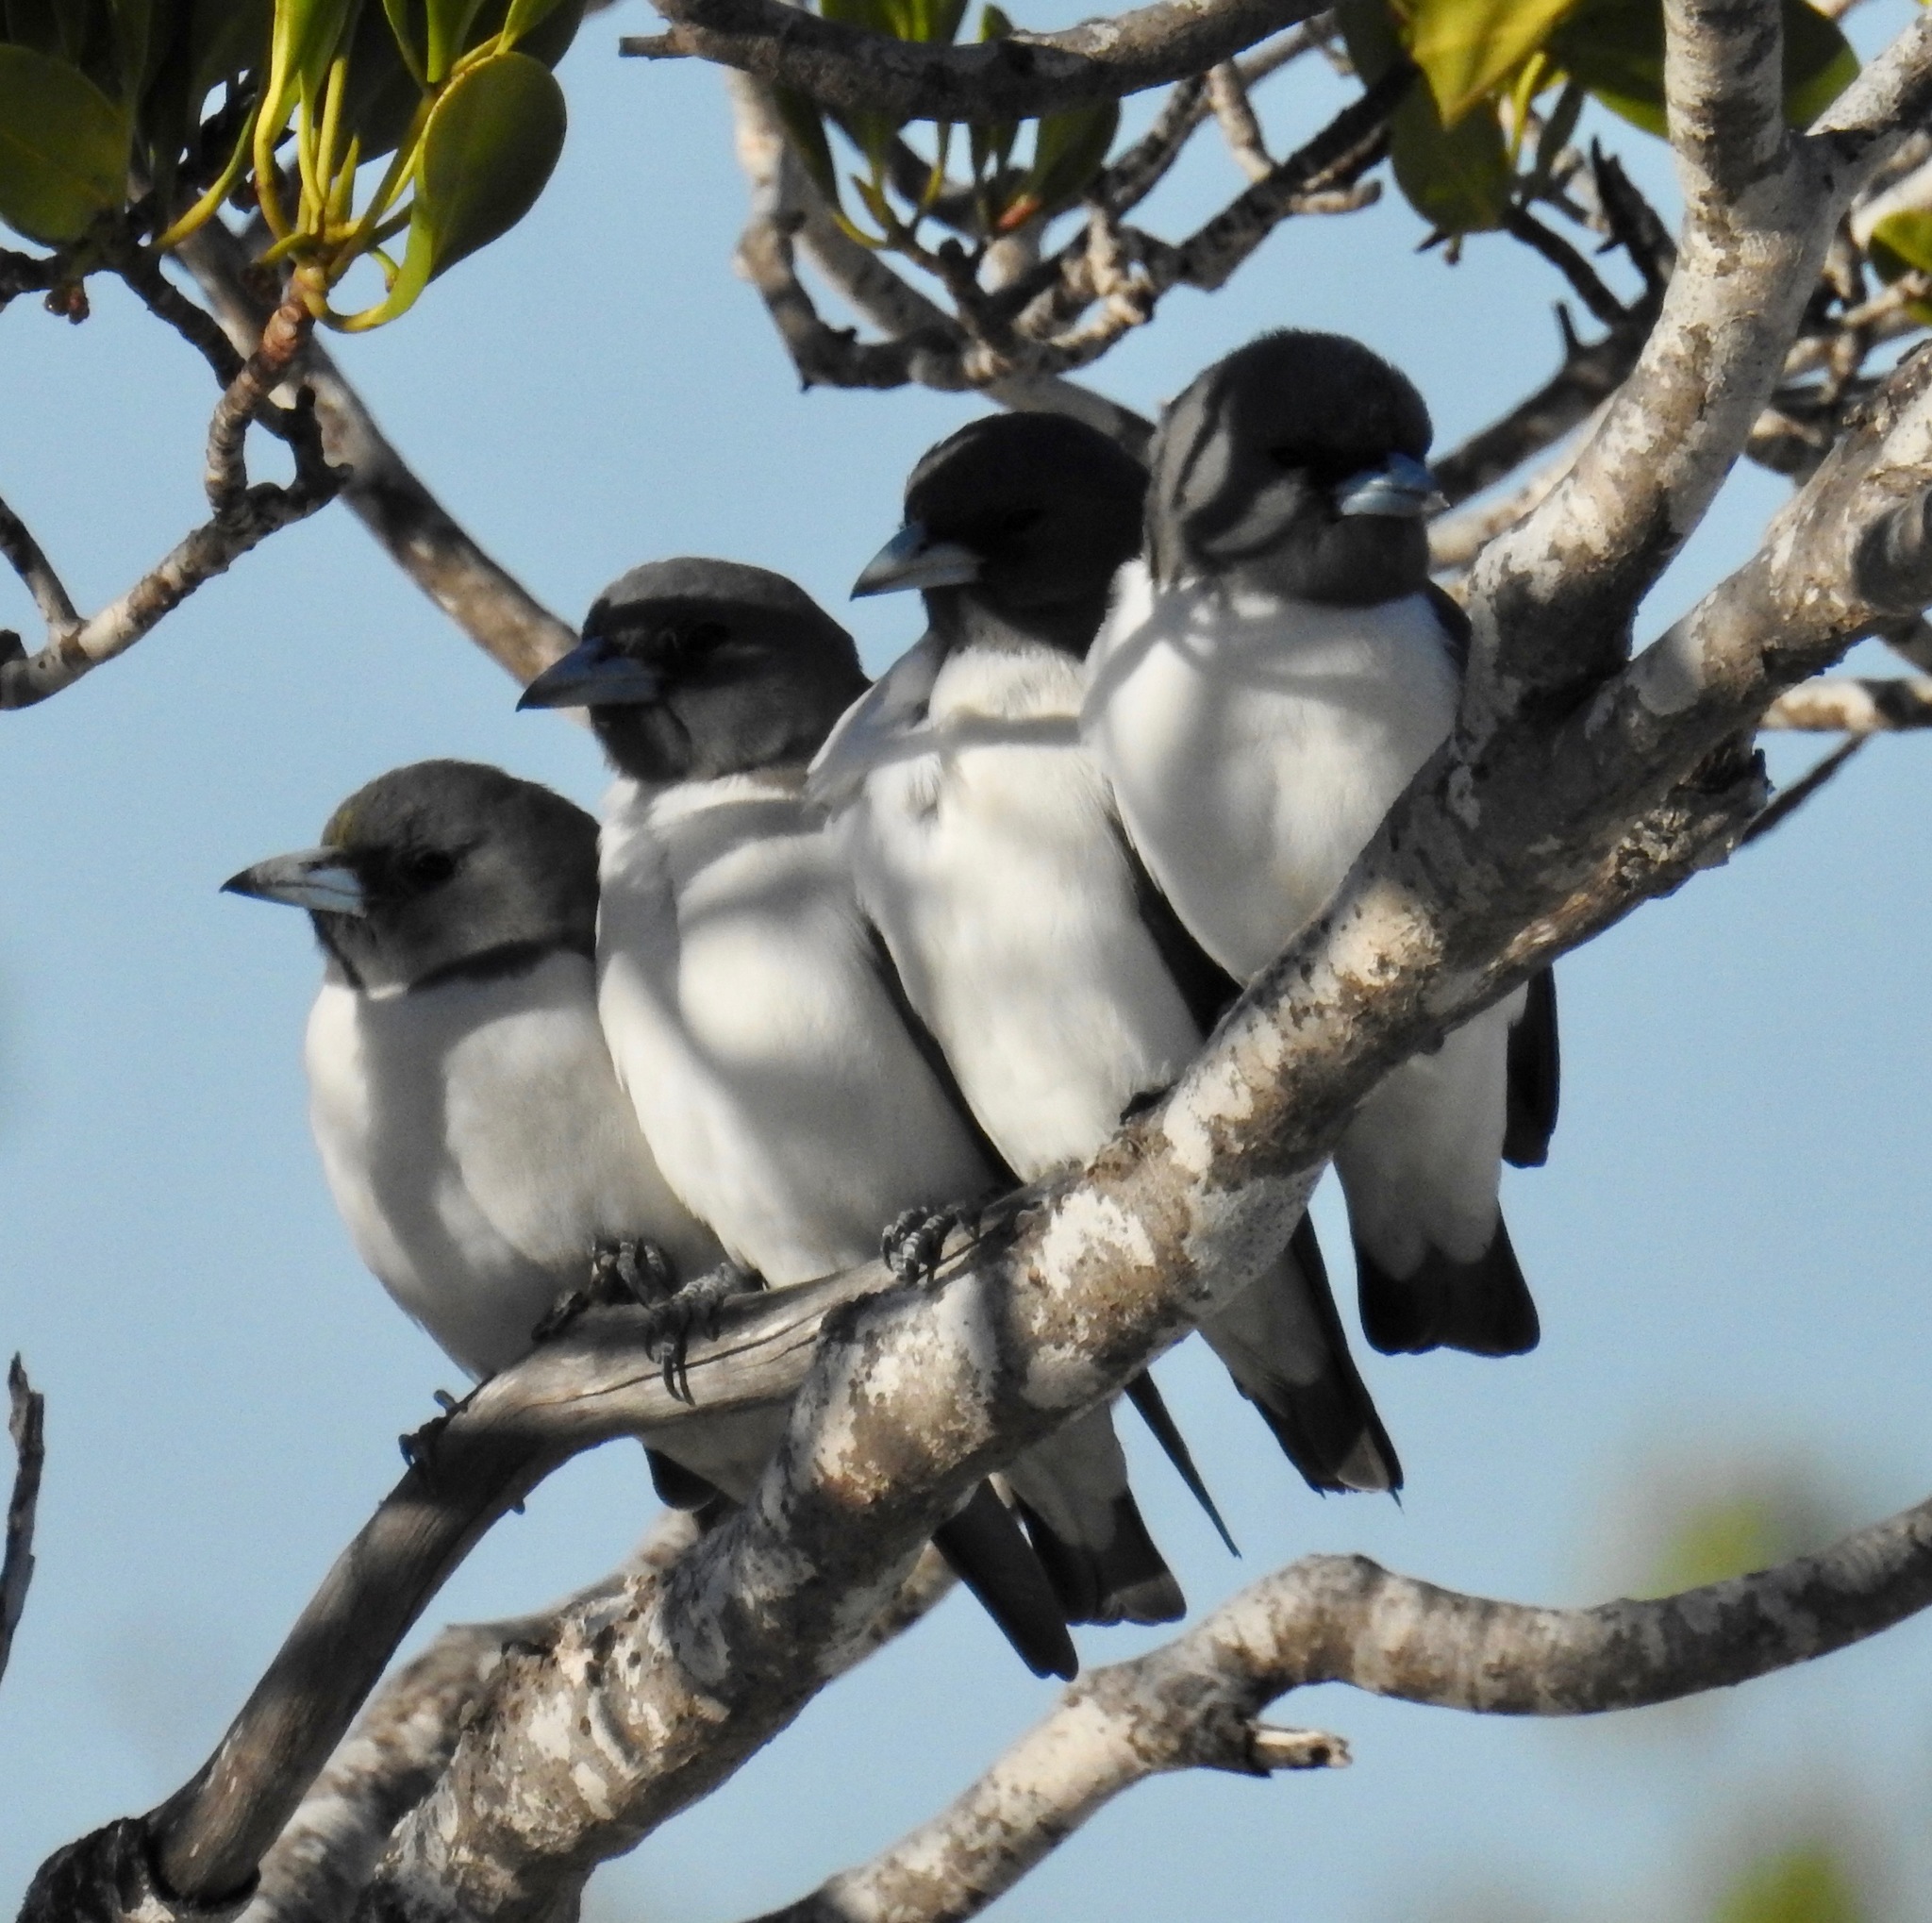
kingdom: Animalia
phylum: Chordata
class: Aves
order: Passeriformes
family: Artamidae
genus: Artamus
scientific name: Artamus leucoryn
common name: White-breasted woodswallow
